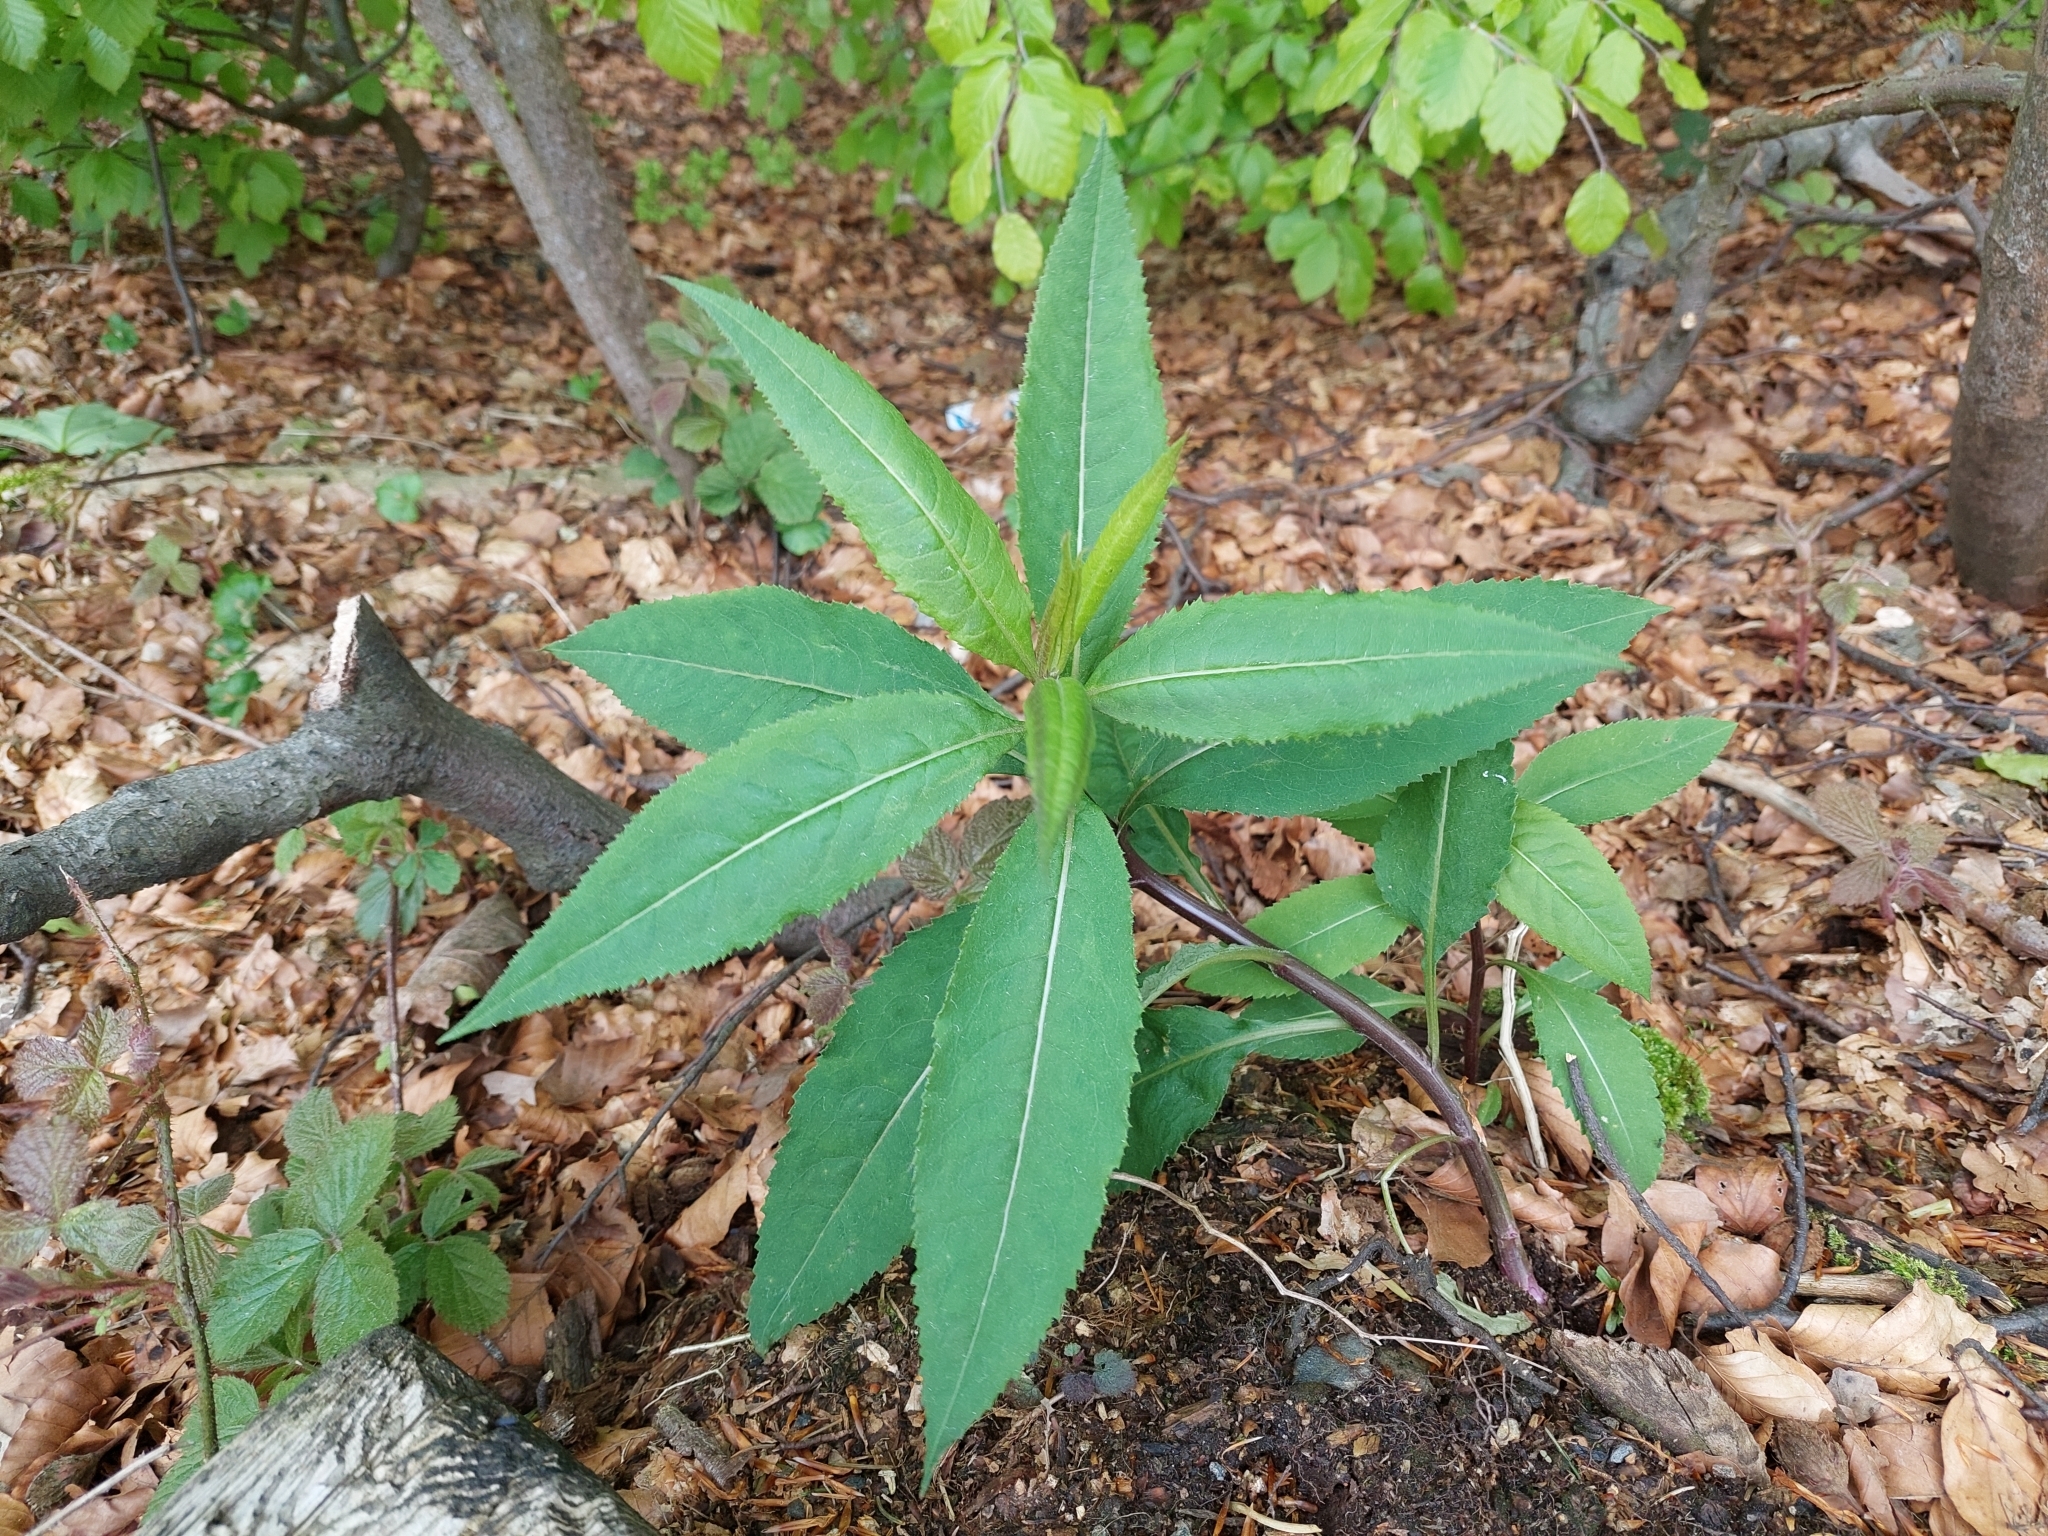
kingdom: Plantae
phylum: Tracheophyta
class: Magnoliopsida
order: Asterales
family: Asteraceae
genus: Senecio
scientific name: Senecio ovatus
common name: Wood ragwort
